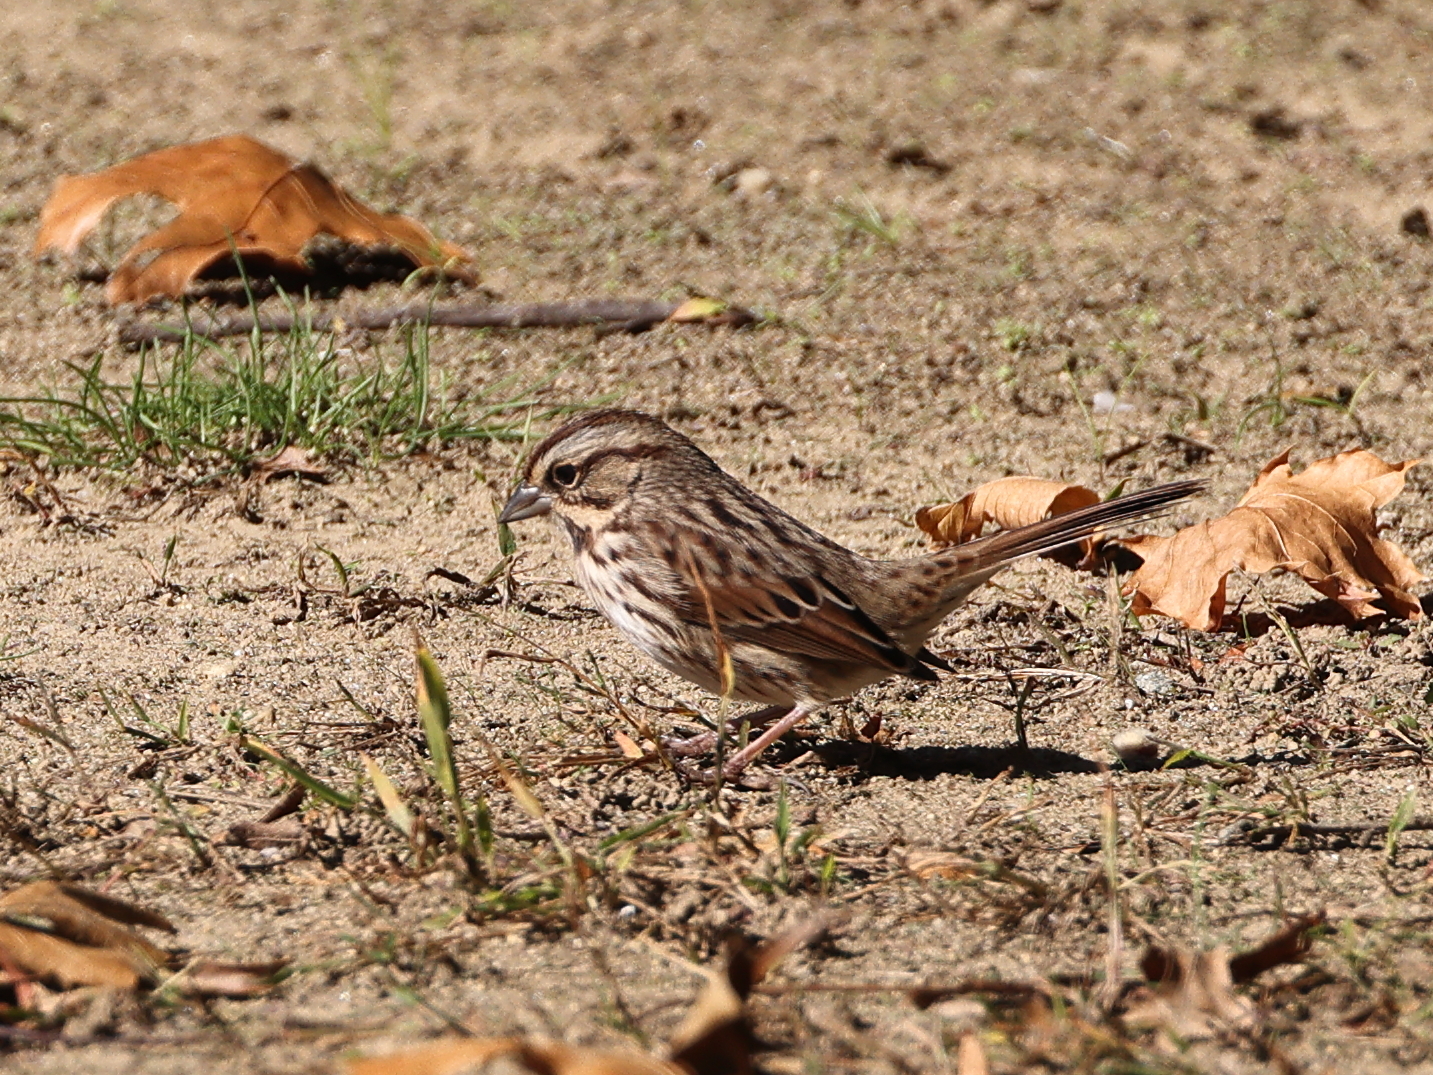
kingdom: Animalia
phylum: Chordata
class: Aves
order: Passeriformes
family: Passerellidae
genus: Melospiza
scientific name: Melospiza melodia
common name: Song sparrow
